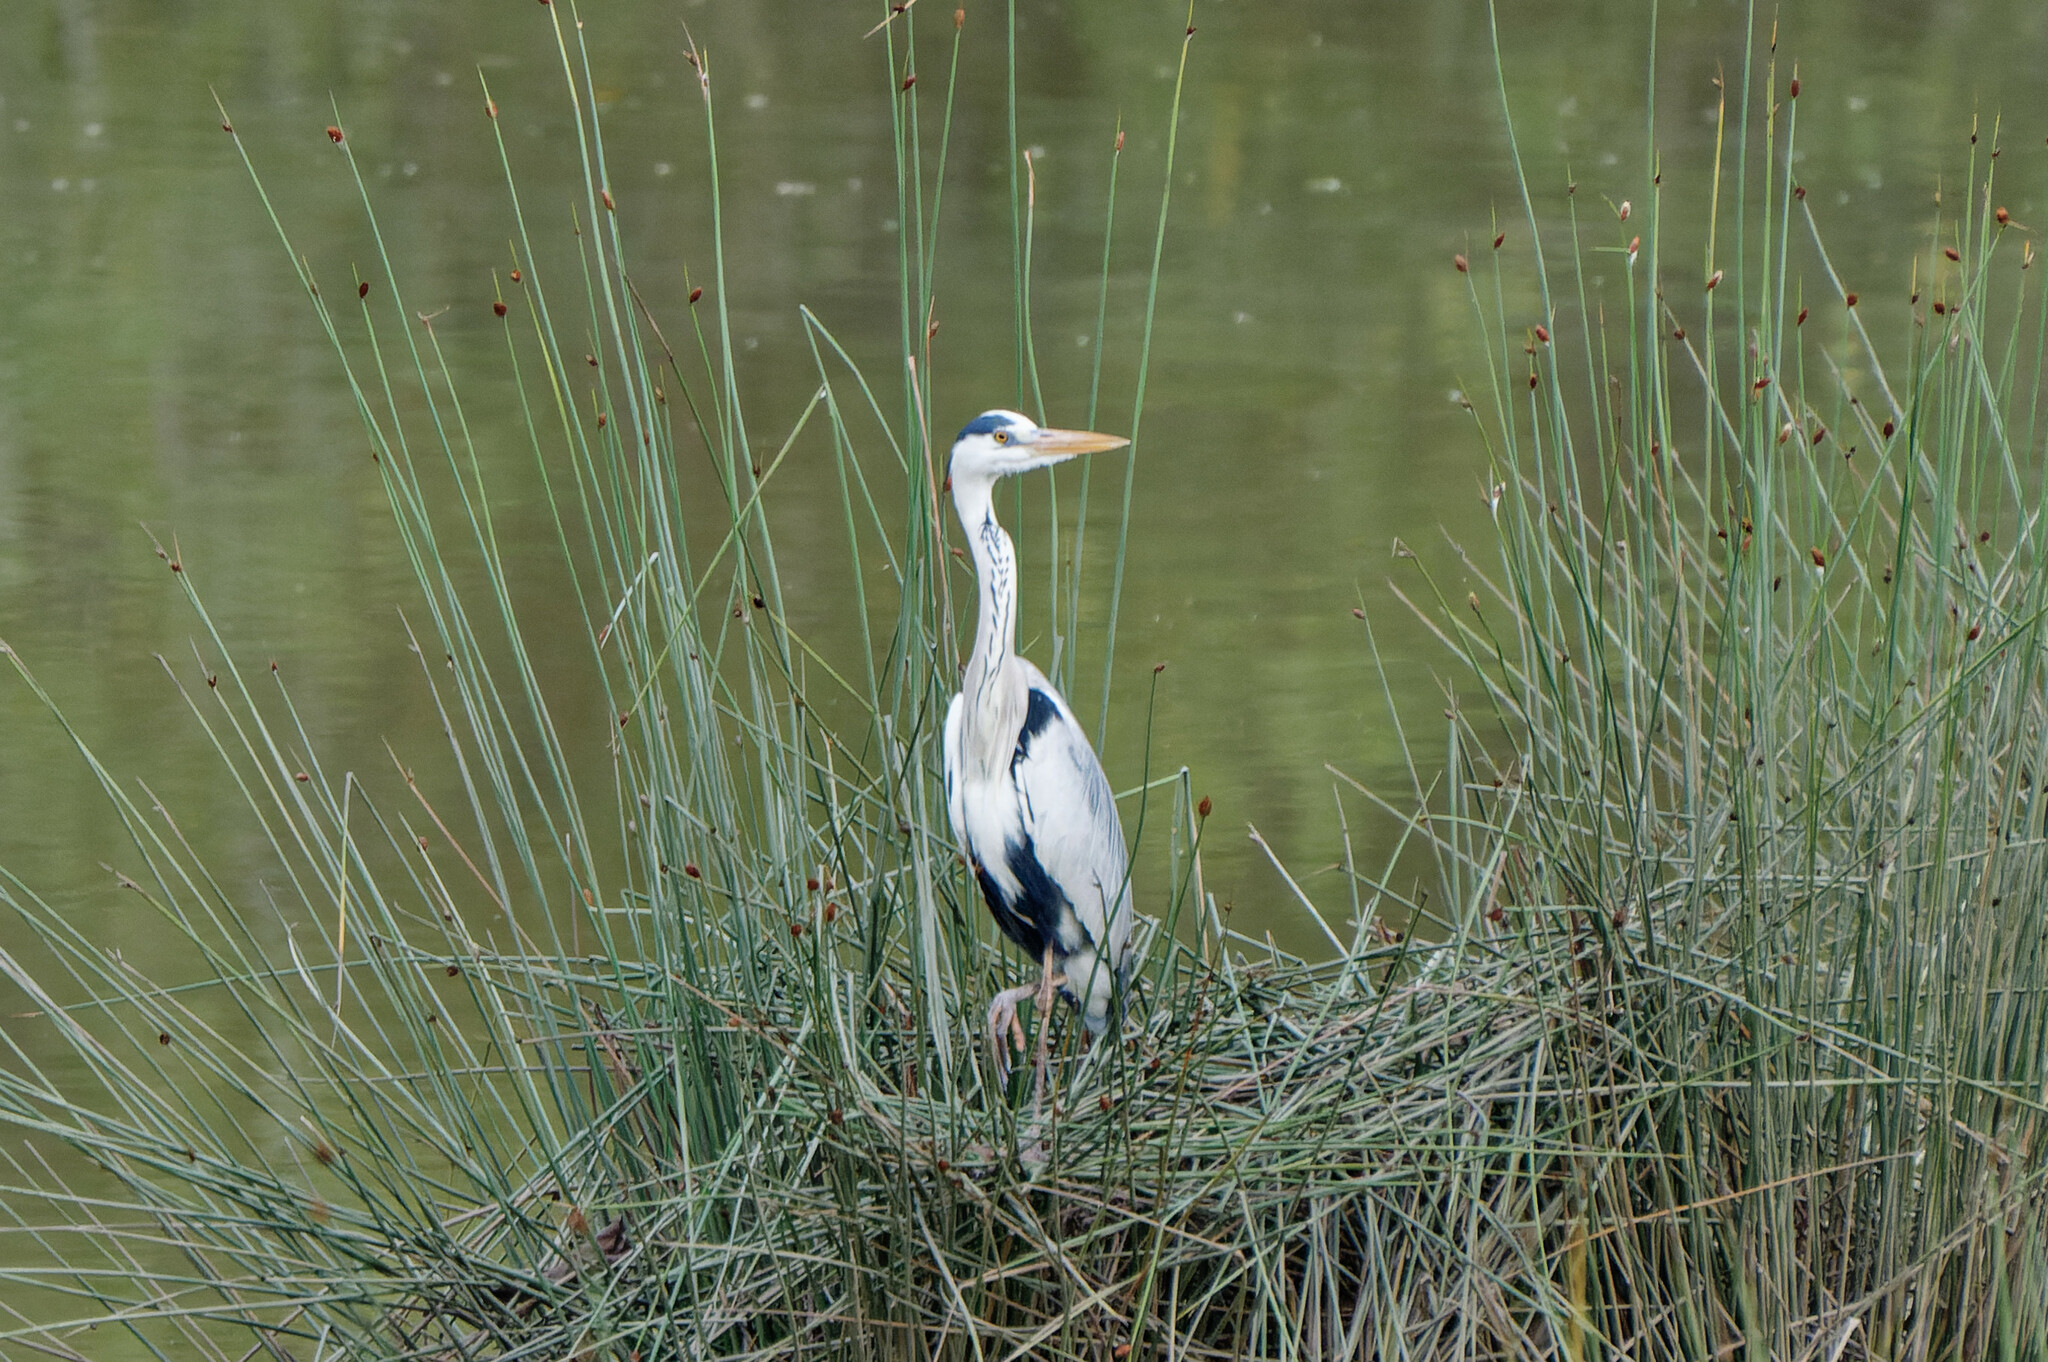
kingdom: Animalia
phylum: Chordata
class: Aves
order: Pelecaniformes
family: Ardeidae
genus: Ardea
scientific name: Ardea cinerea
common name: Grey heron
